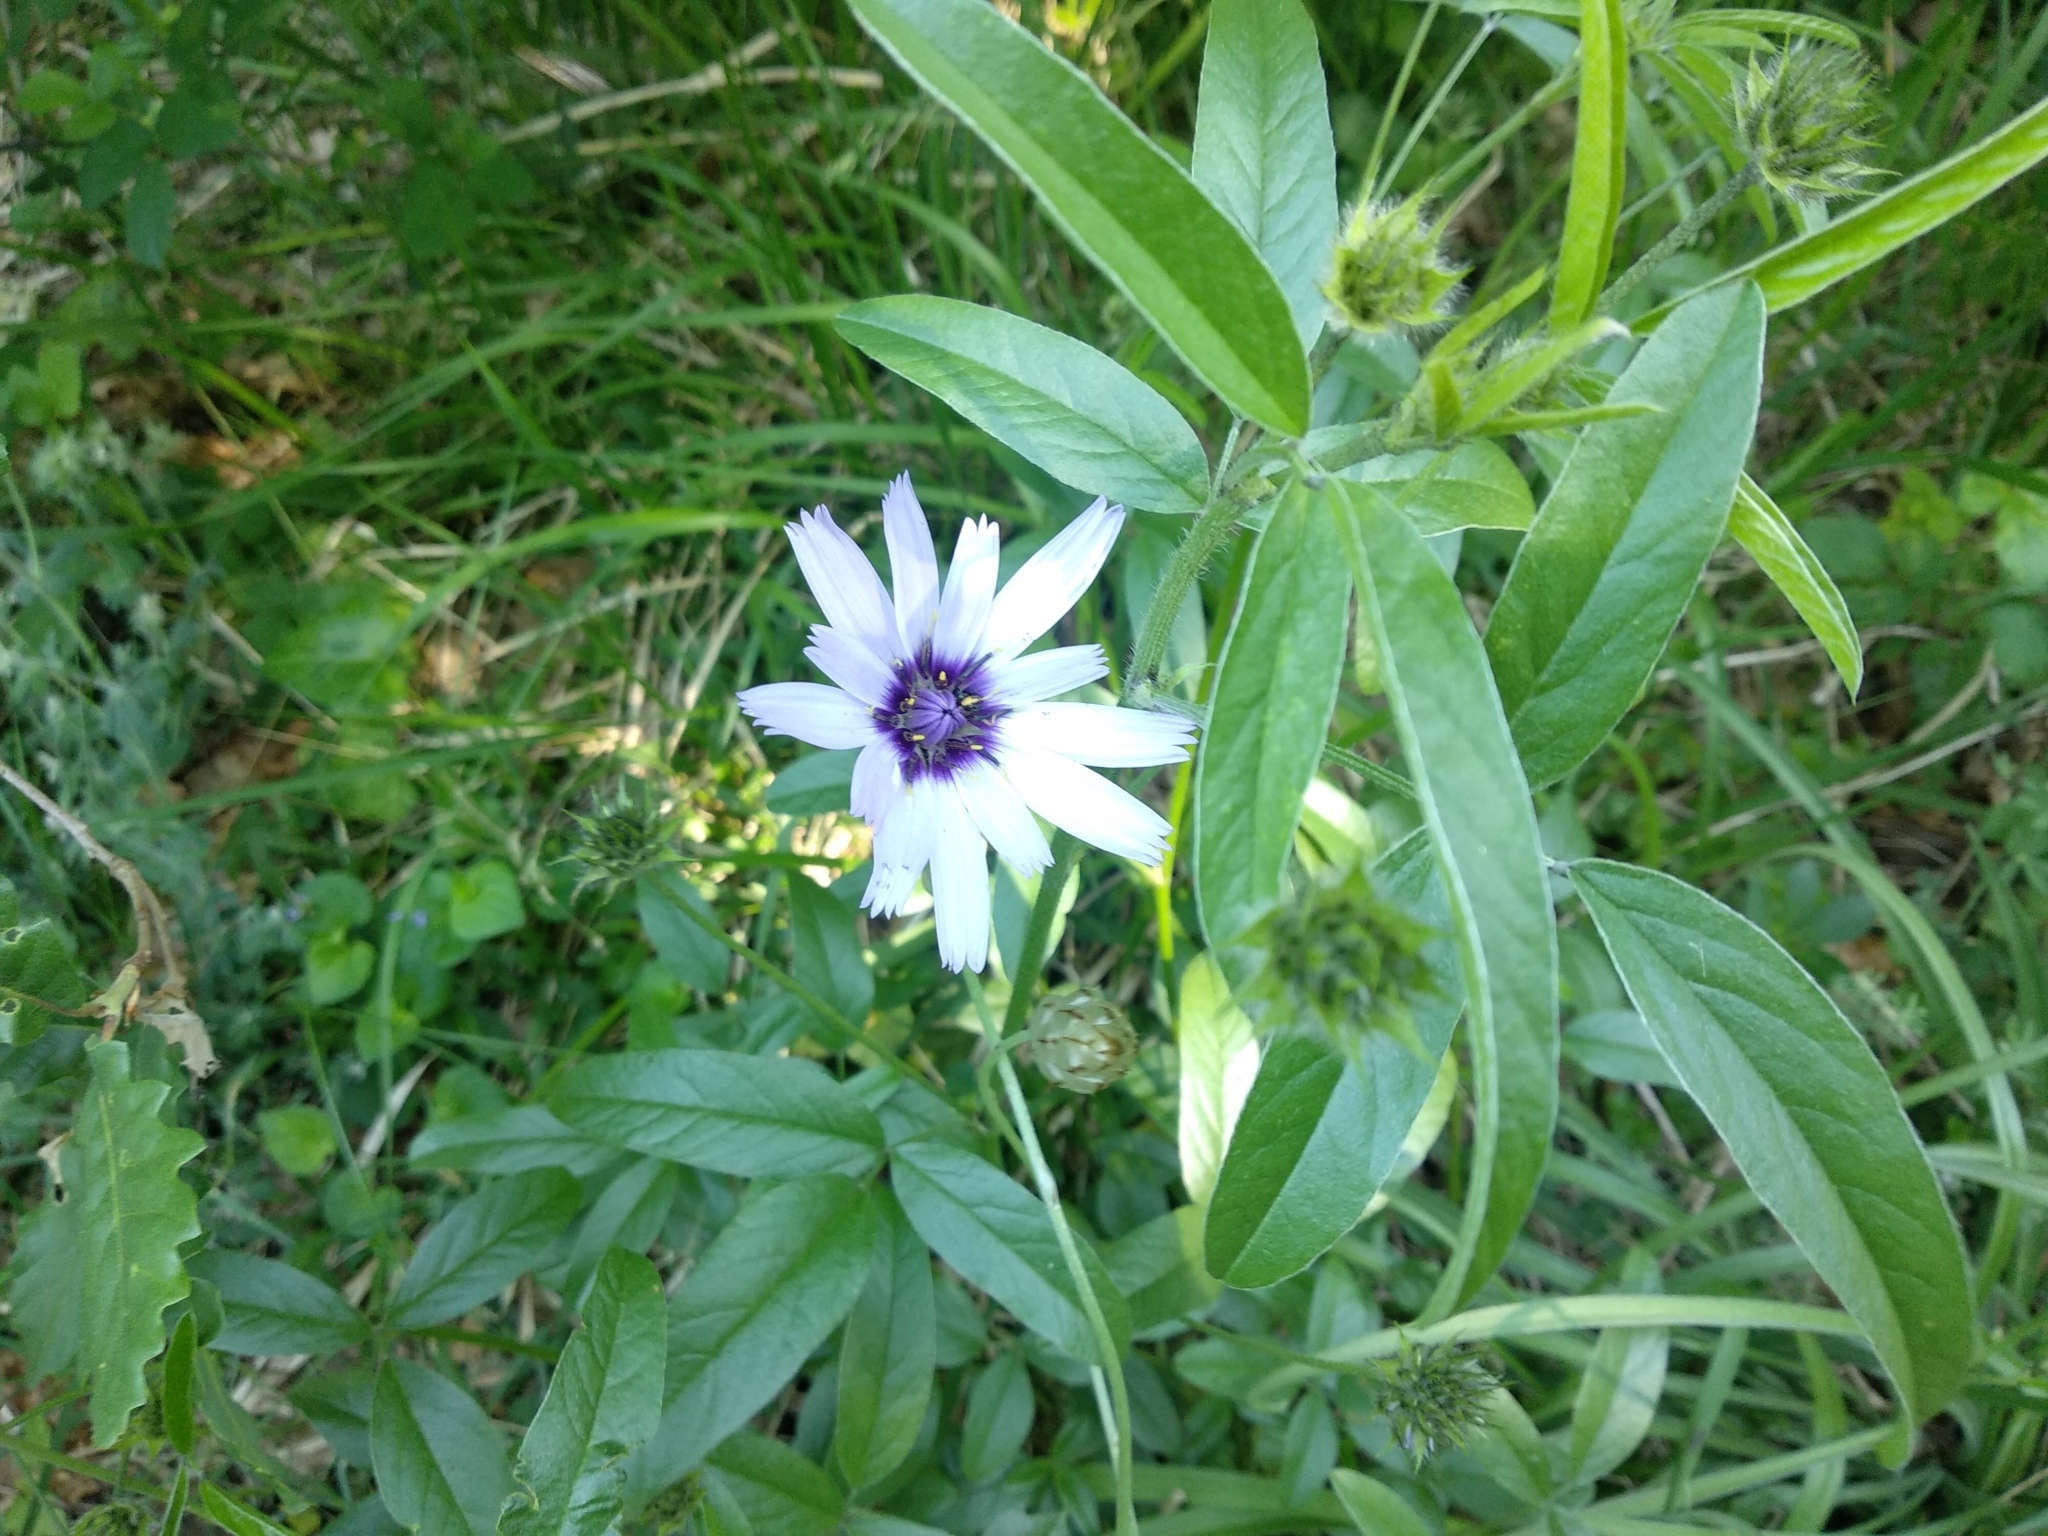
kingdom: Plantae
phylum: Tracheophyta
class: Magnoliopsida
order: Asterales
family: Asteraceae
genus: Catananche
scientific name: Catananche caerulea
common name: Blue cupidone
